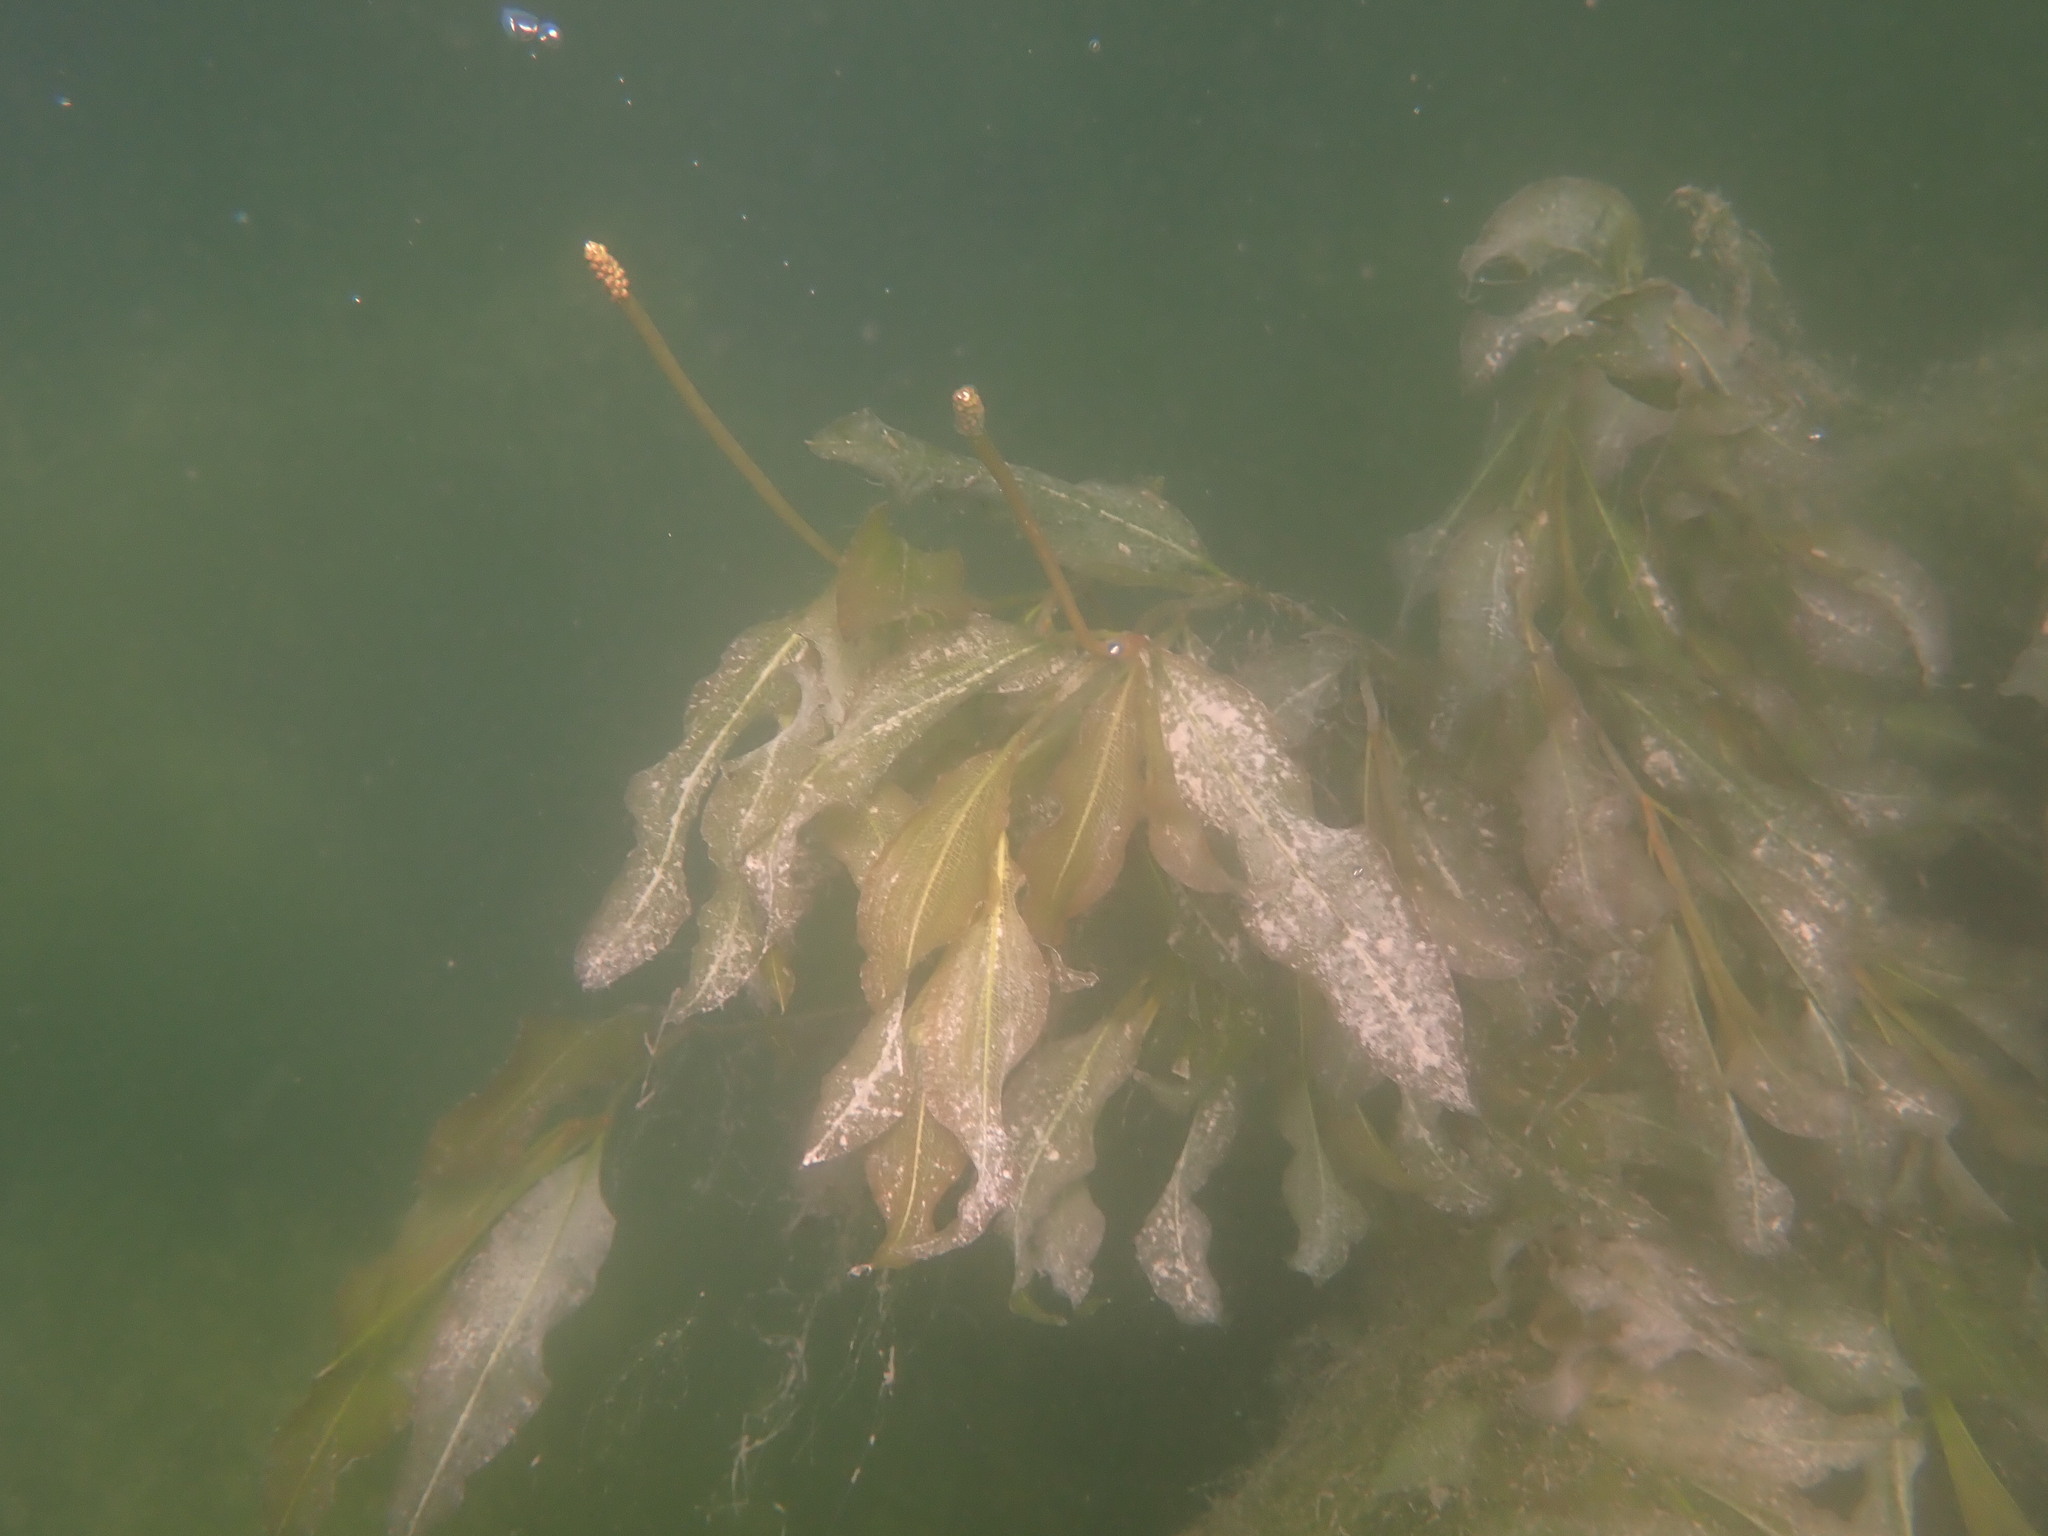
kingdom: Plantae
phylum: Tracheophyta
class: Liliopsida
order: Alismatales
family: Potamogetonaceae
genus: Potamogeton
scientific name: Potamogeton lucens
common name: Shining pondweed
